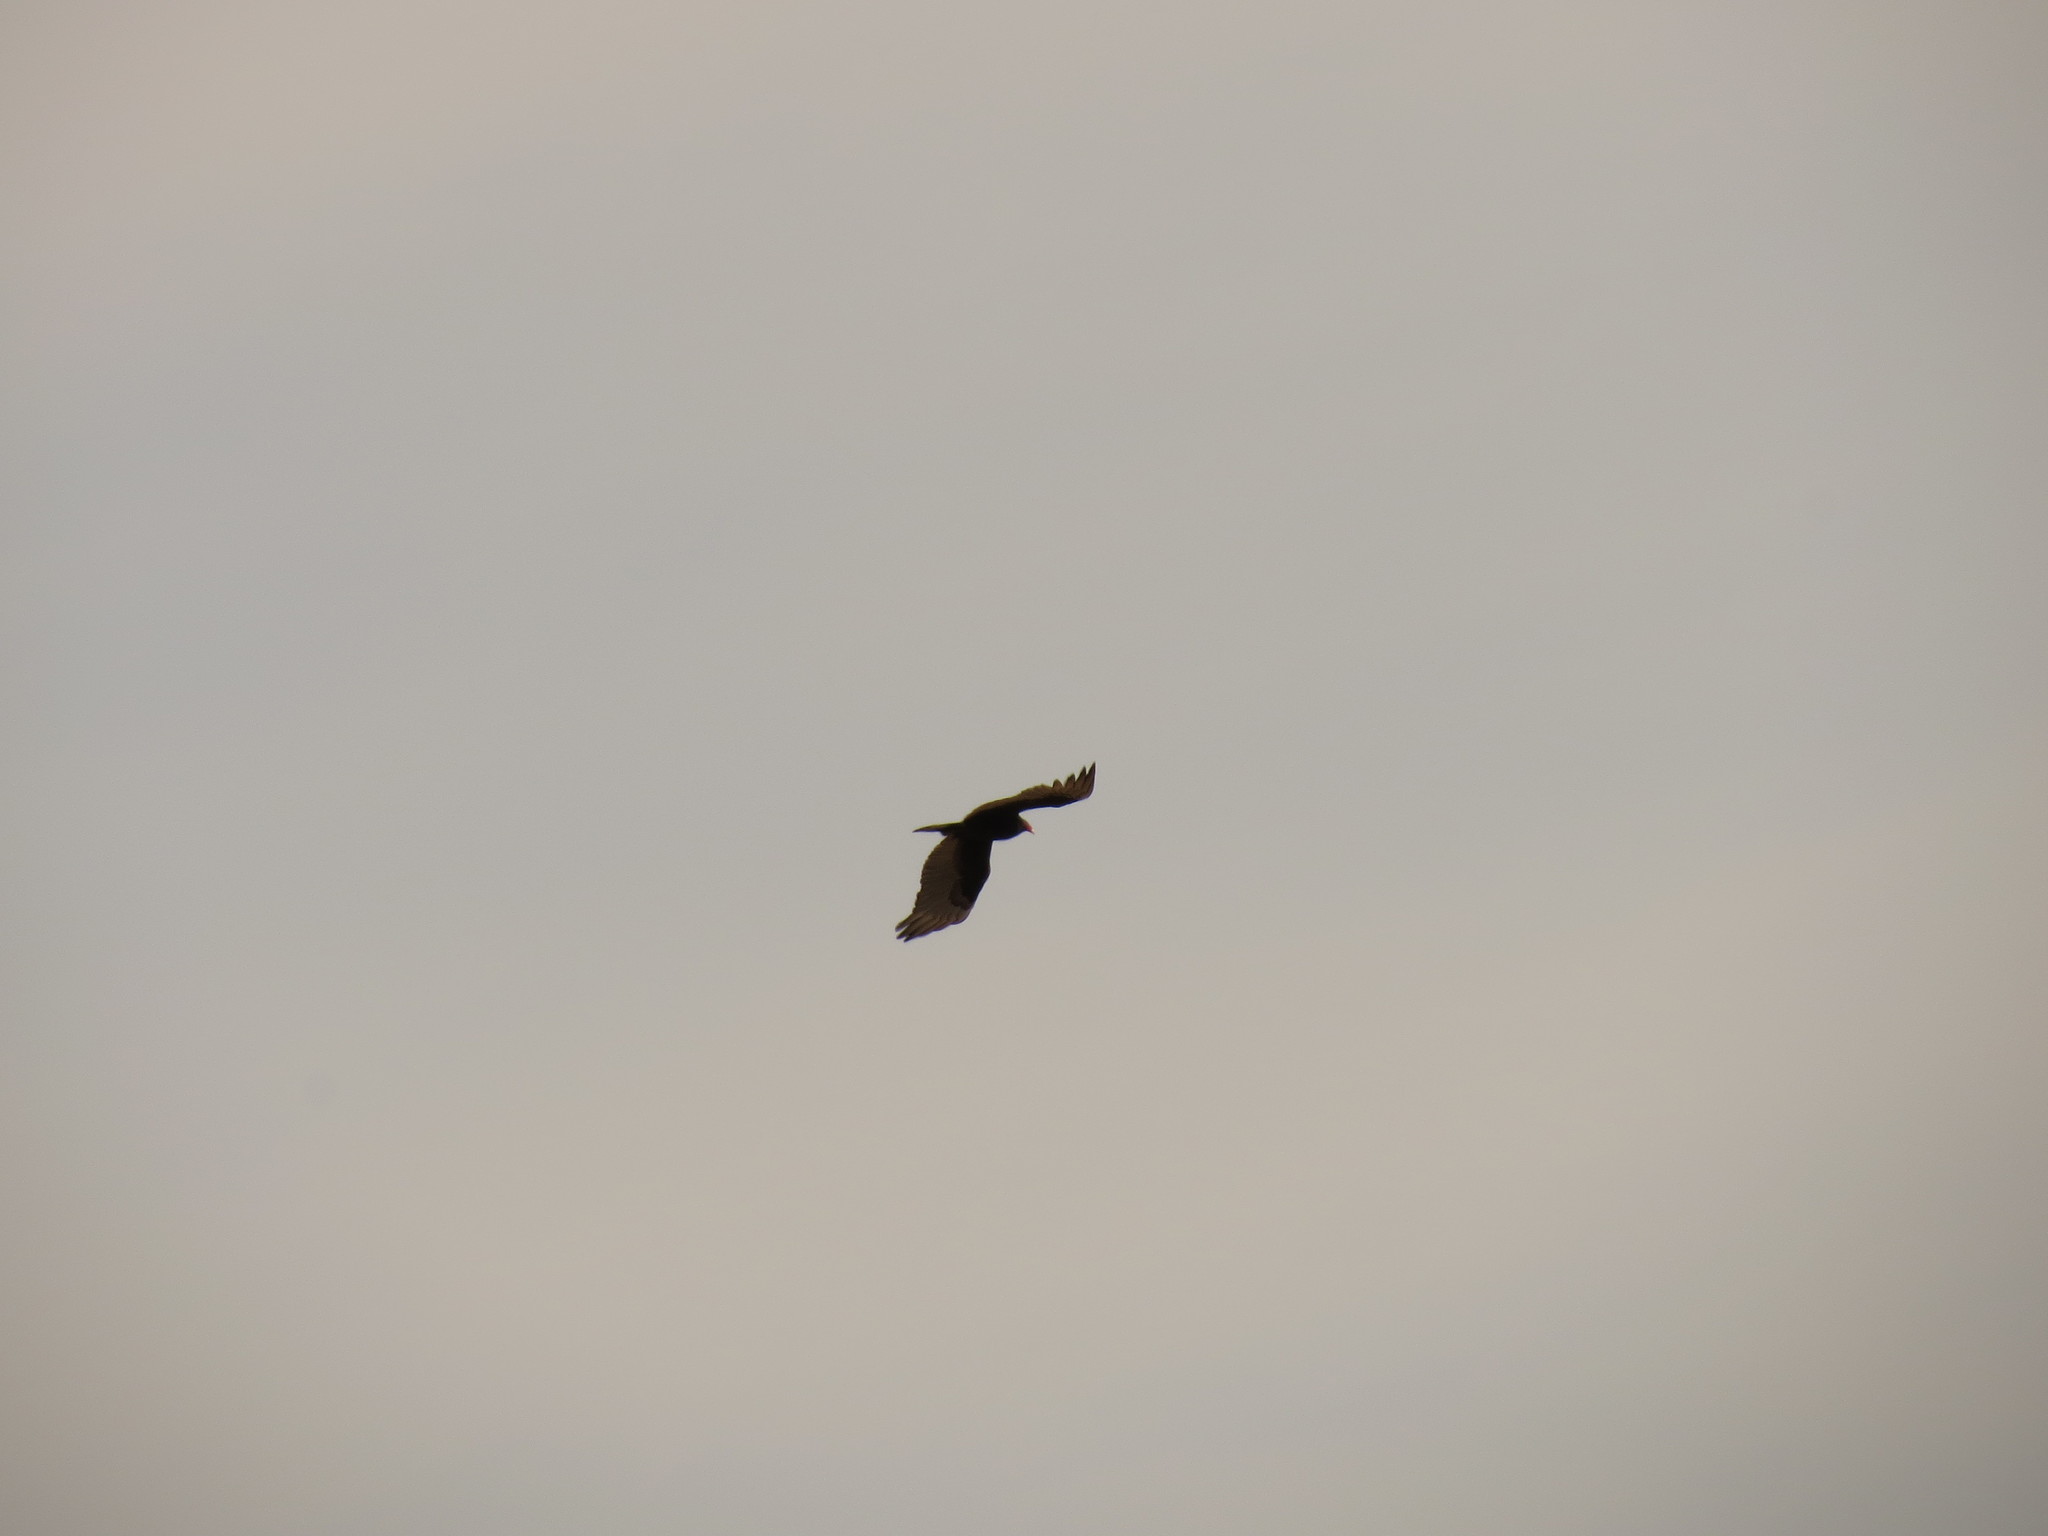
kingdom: Animalia
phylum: Chordata
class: Aves
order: Accipitriformes
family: Cathartidae
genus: Cathartes
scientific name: Cathartes aura
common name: Turkey vulture
